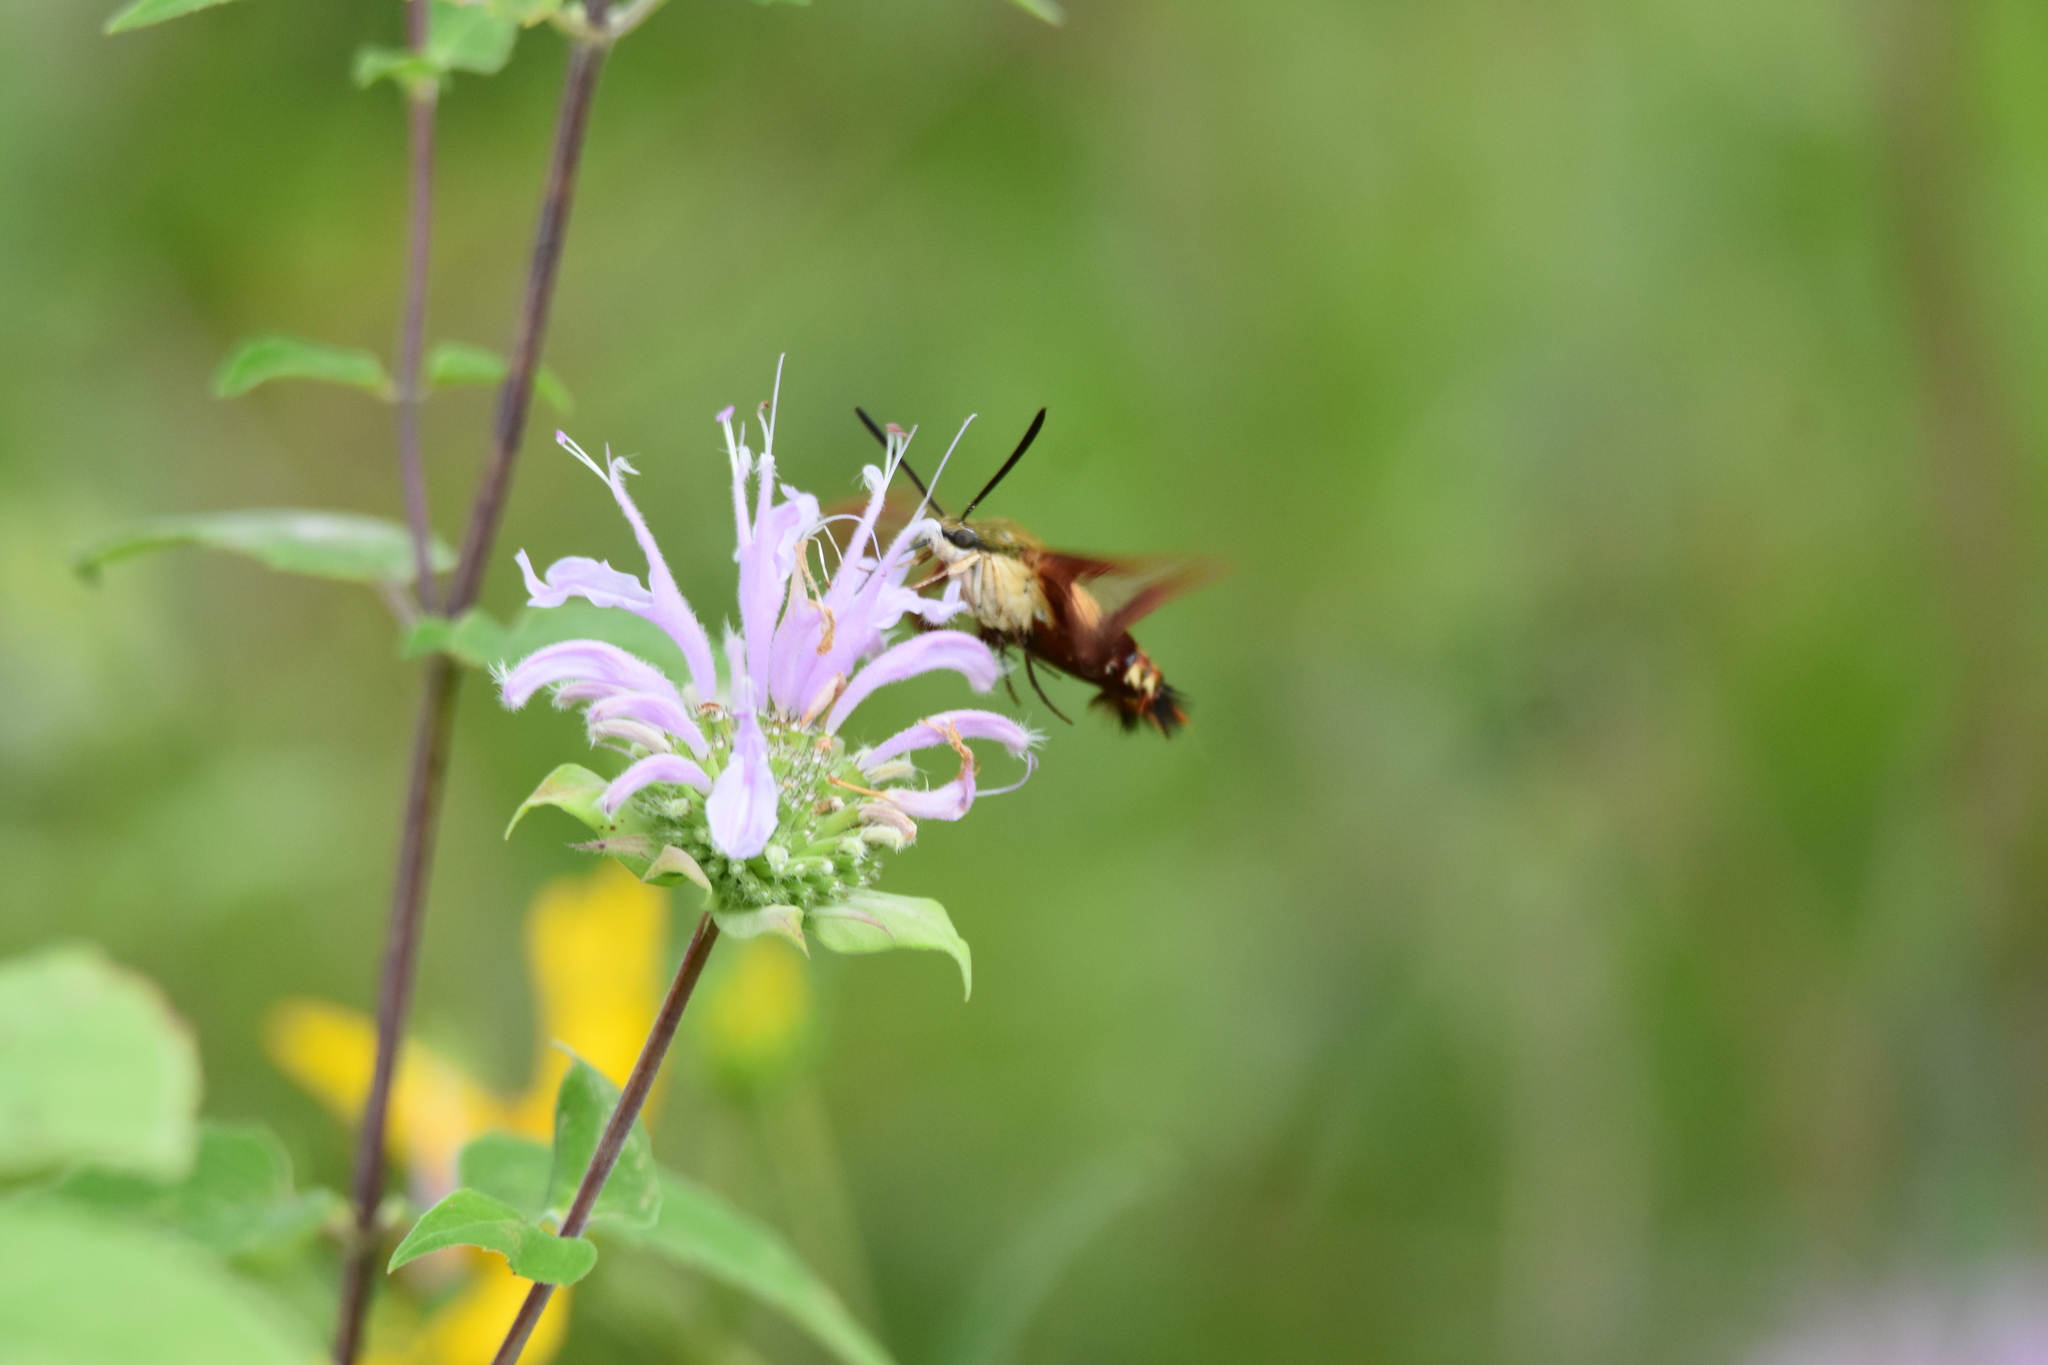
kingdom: Animalia
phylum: Arthropoda
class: Insecta
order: Lepidoptera
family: Sphingidae
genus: Hemaris
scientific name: Hemaris thysbe
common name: Common clear-wing
